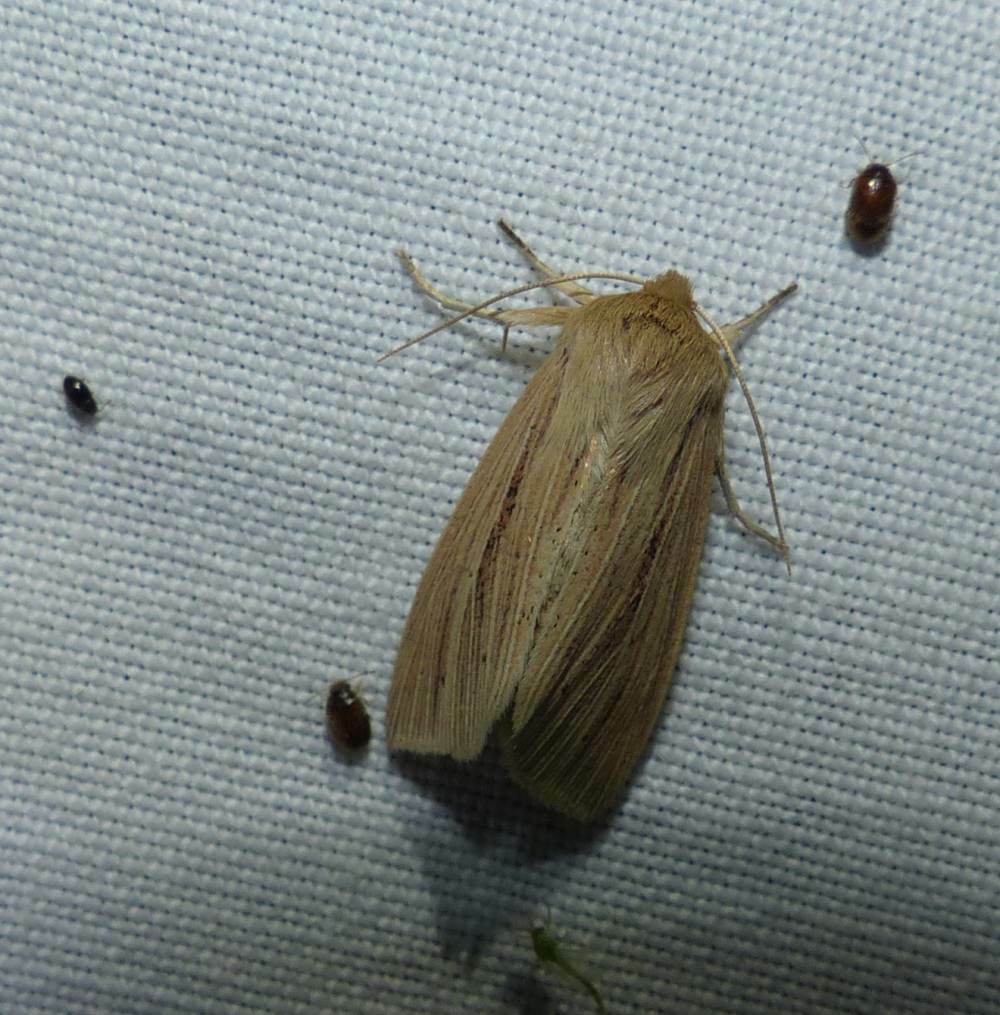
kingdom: Animalia
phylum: Arthropoda
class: Insecta
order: Lepidoptera
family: Noctuidae
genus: Mythimna
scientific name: Mythimna oxygala
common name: Lesser wainscot
